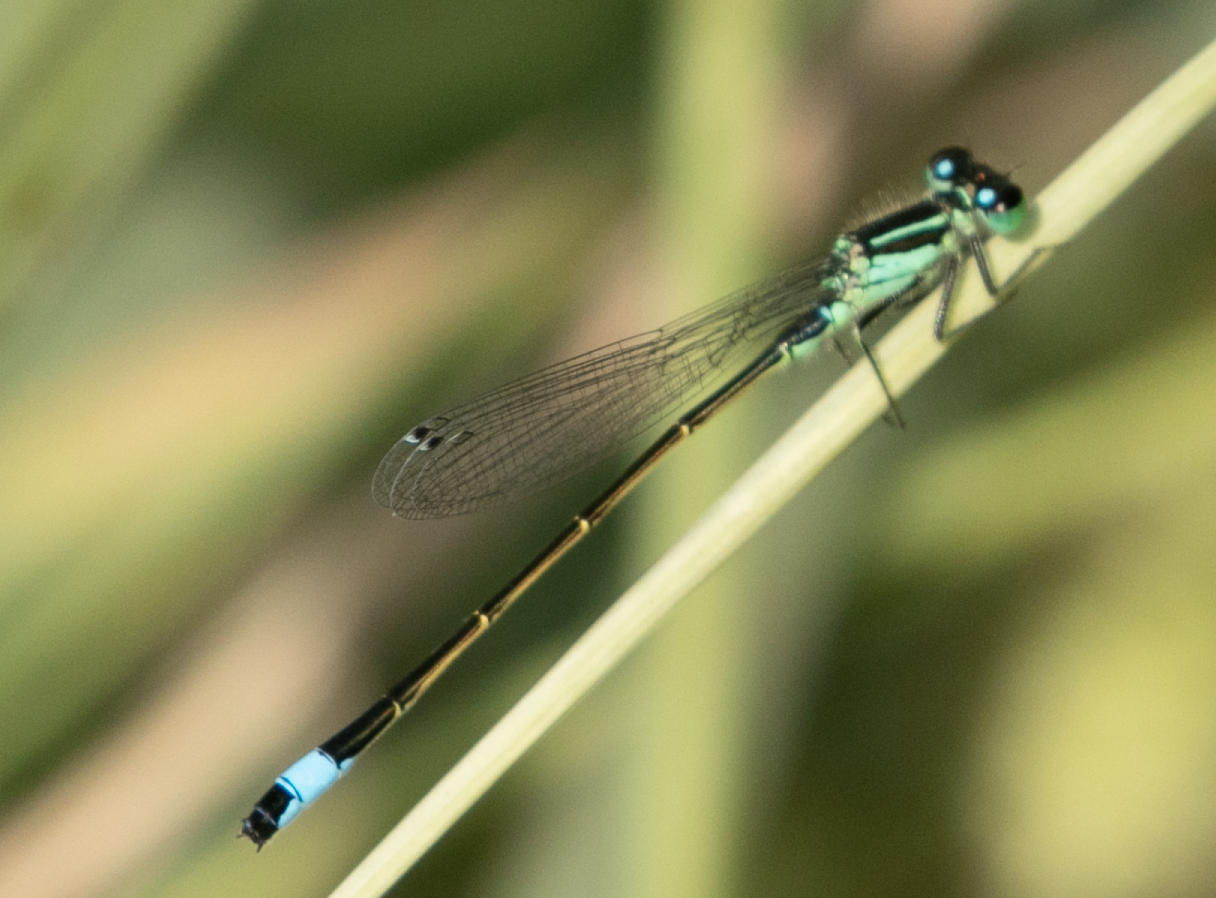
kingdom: Animalia
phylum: Arthropoda
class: Insecta
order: Odonata
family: Coenagrionidae
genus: Ischnura
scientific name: Ischnura elegans
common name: Blue-tailed damselfly
